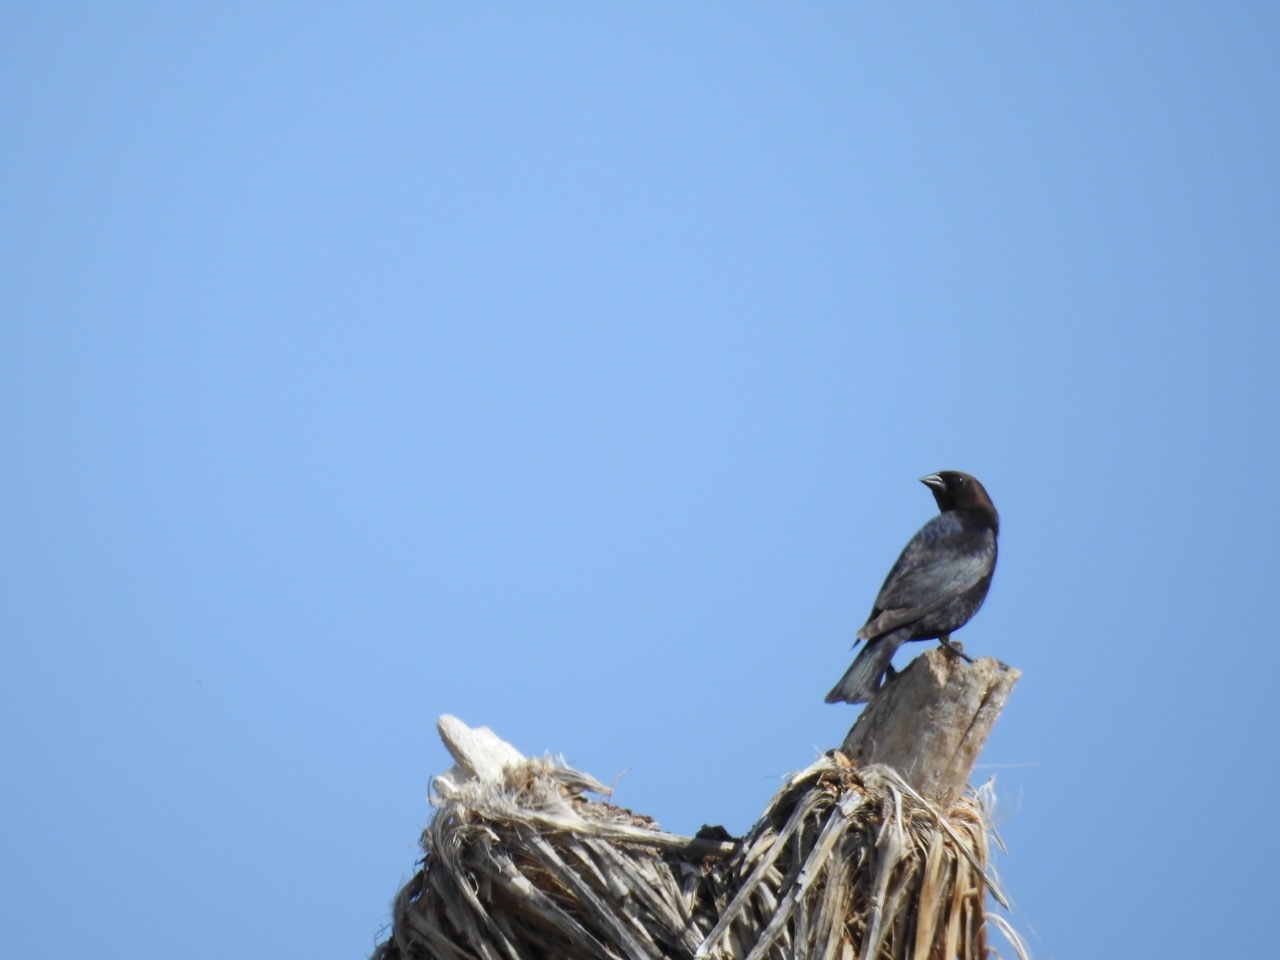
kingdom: Animalia
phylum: Chordata
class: Aves
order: Passeriformes
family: Icteridae
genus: Molothrus
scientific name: Molothrus ater
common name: Brown-headed cowbird
